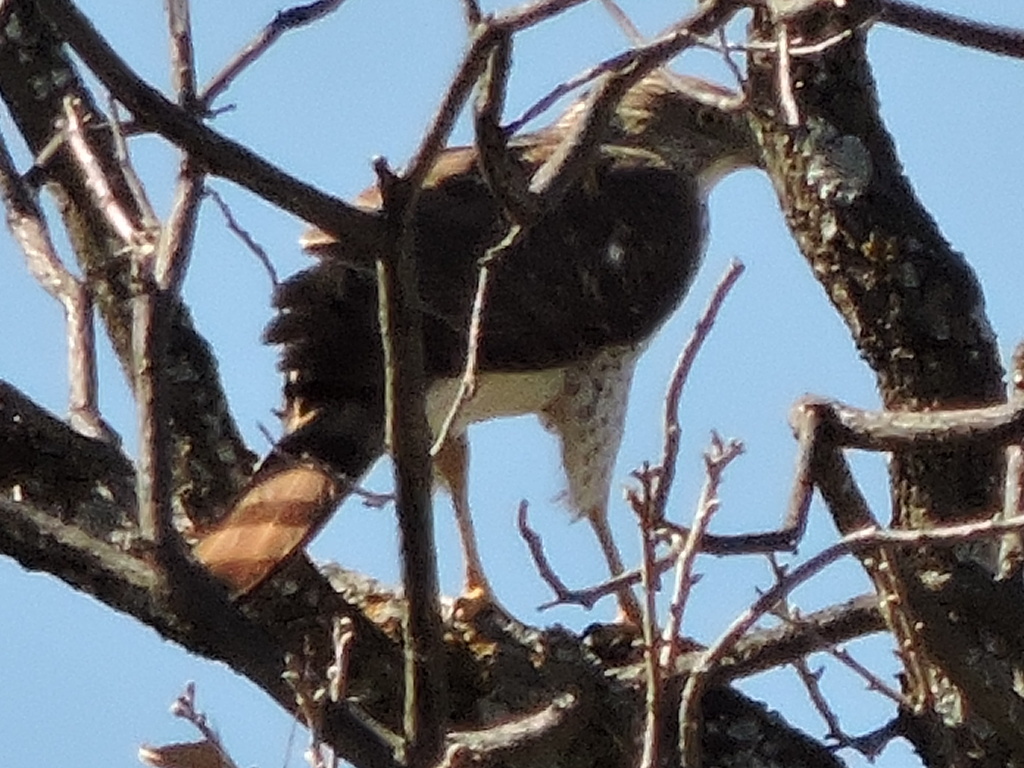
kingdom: Animalia
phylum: Chordata
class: Aves
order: Accipitriformes
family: Accipitridae
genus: Accipiter
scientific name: Accipiter cooperii
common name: Cooper's hawk
